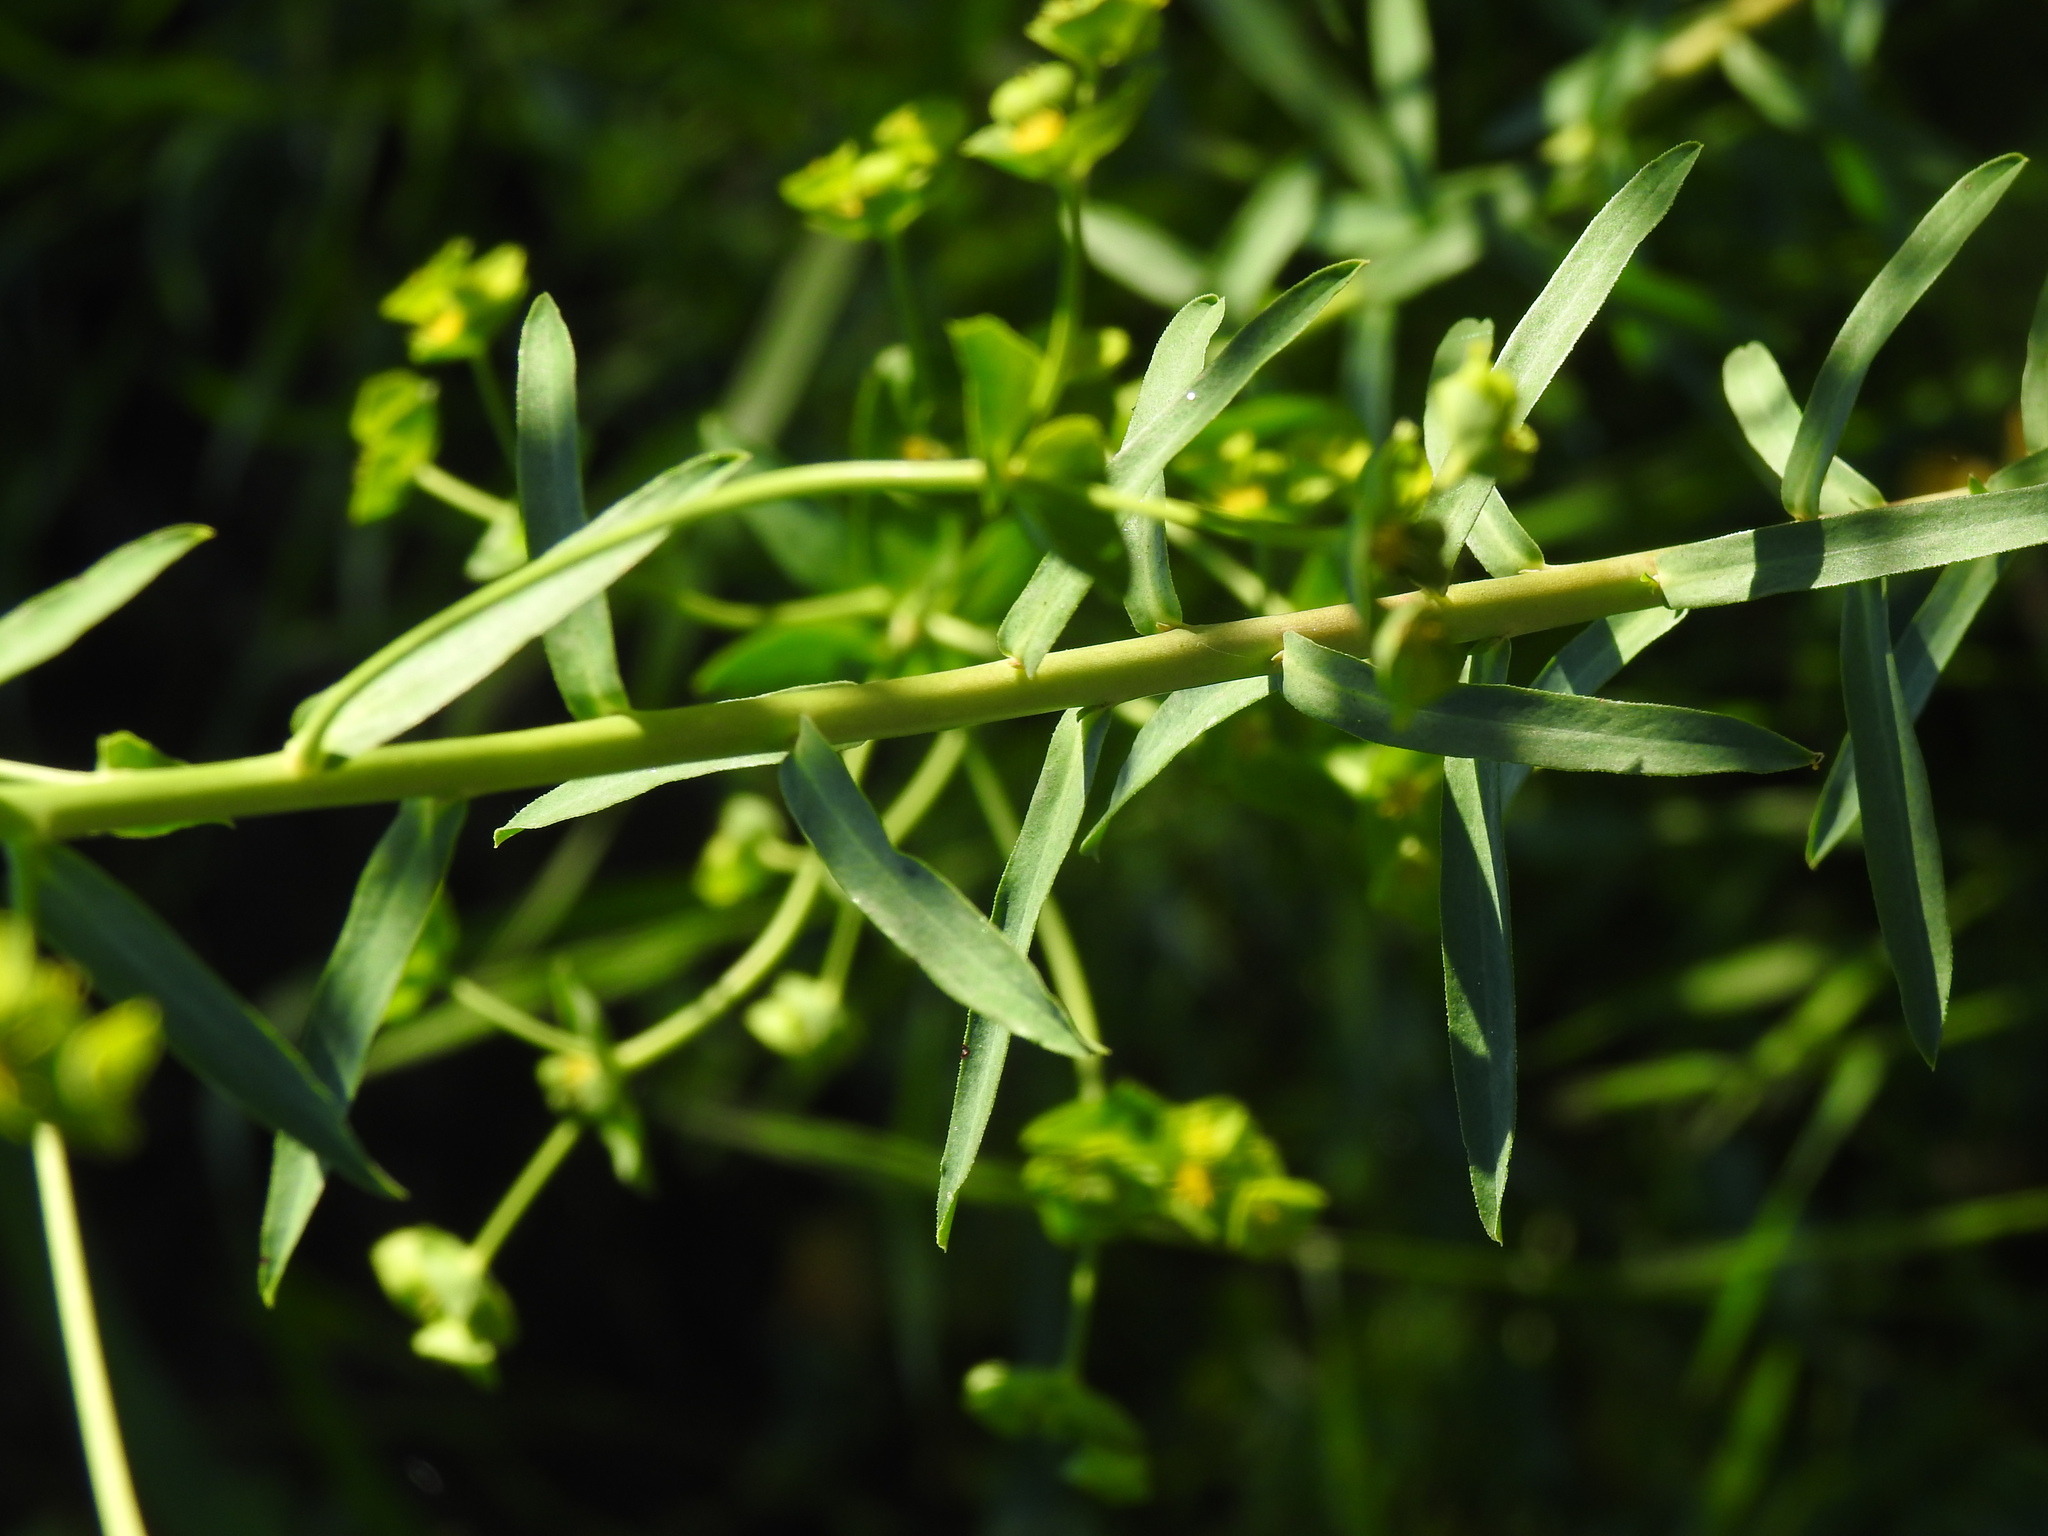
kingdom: Plantae
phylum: Tracheophyta
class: Magnoliopsida
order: Malpighiales
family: Euphorbiaceae
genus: Euphorbia
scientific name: Euphorbia terracina
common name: Geraldton carnation weed
